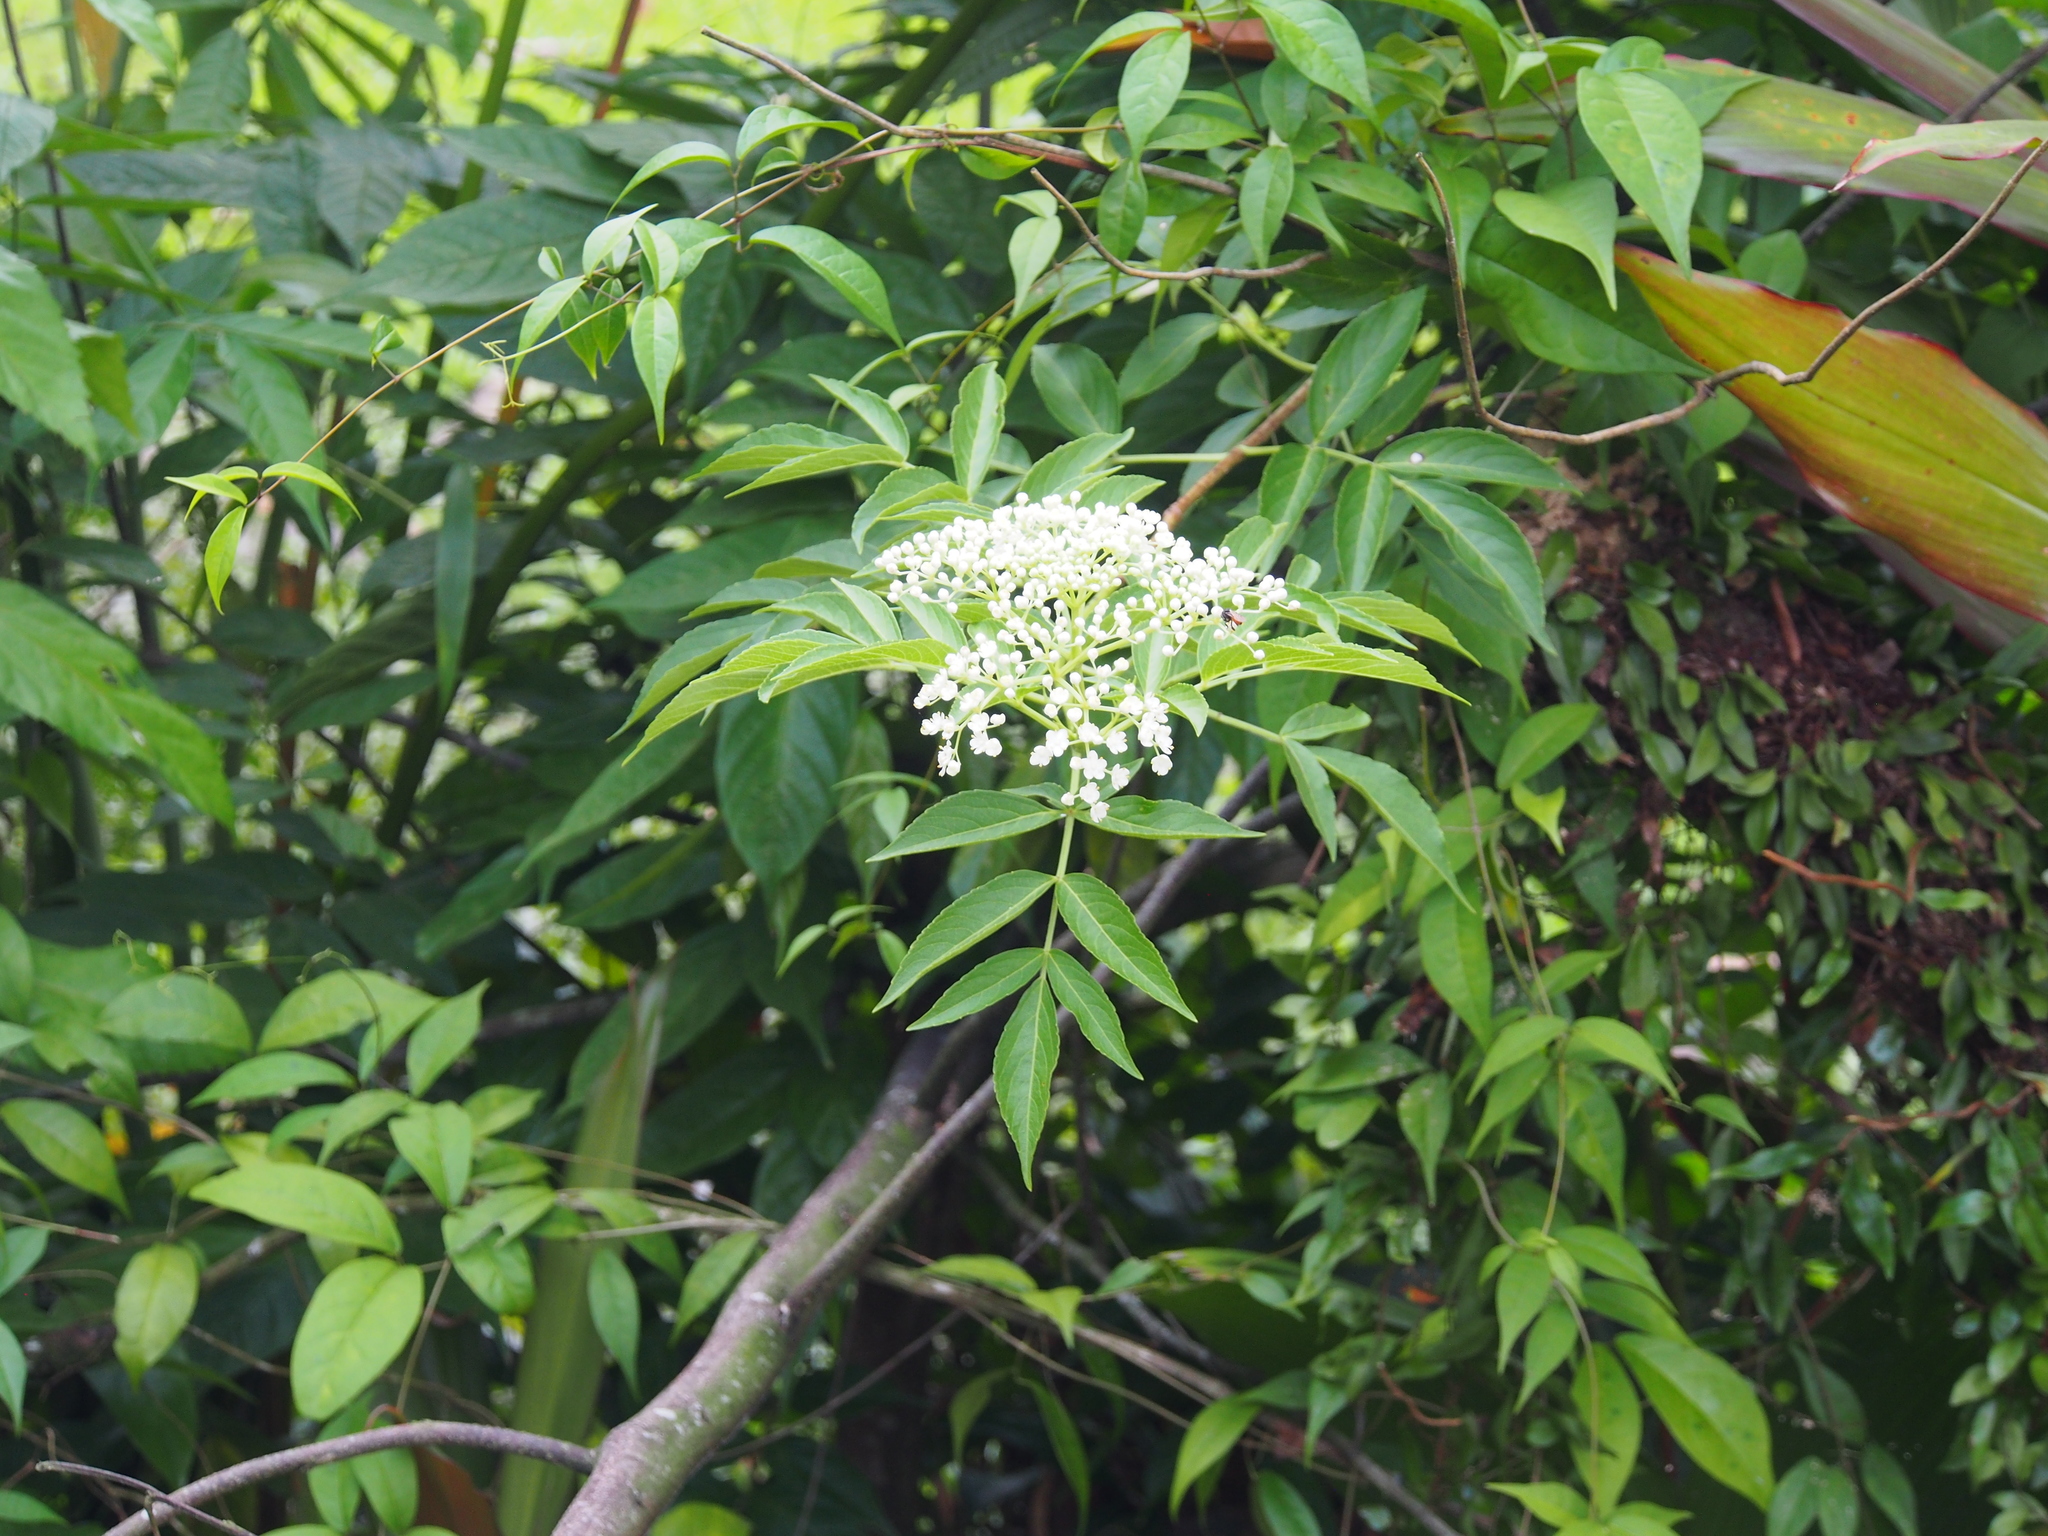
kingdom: Plantae
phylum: Tracheophyta
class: Magnoliopsida
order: Dipsacales
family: Viburnaceae
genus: Sambucus
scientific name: Sambucus nigra
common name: Elder
